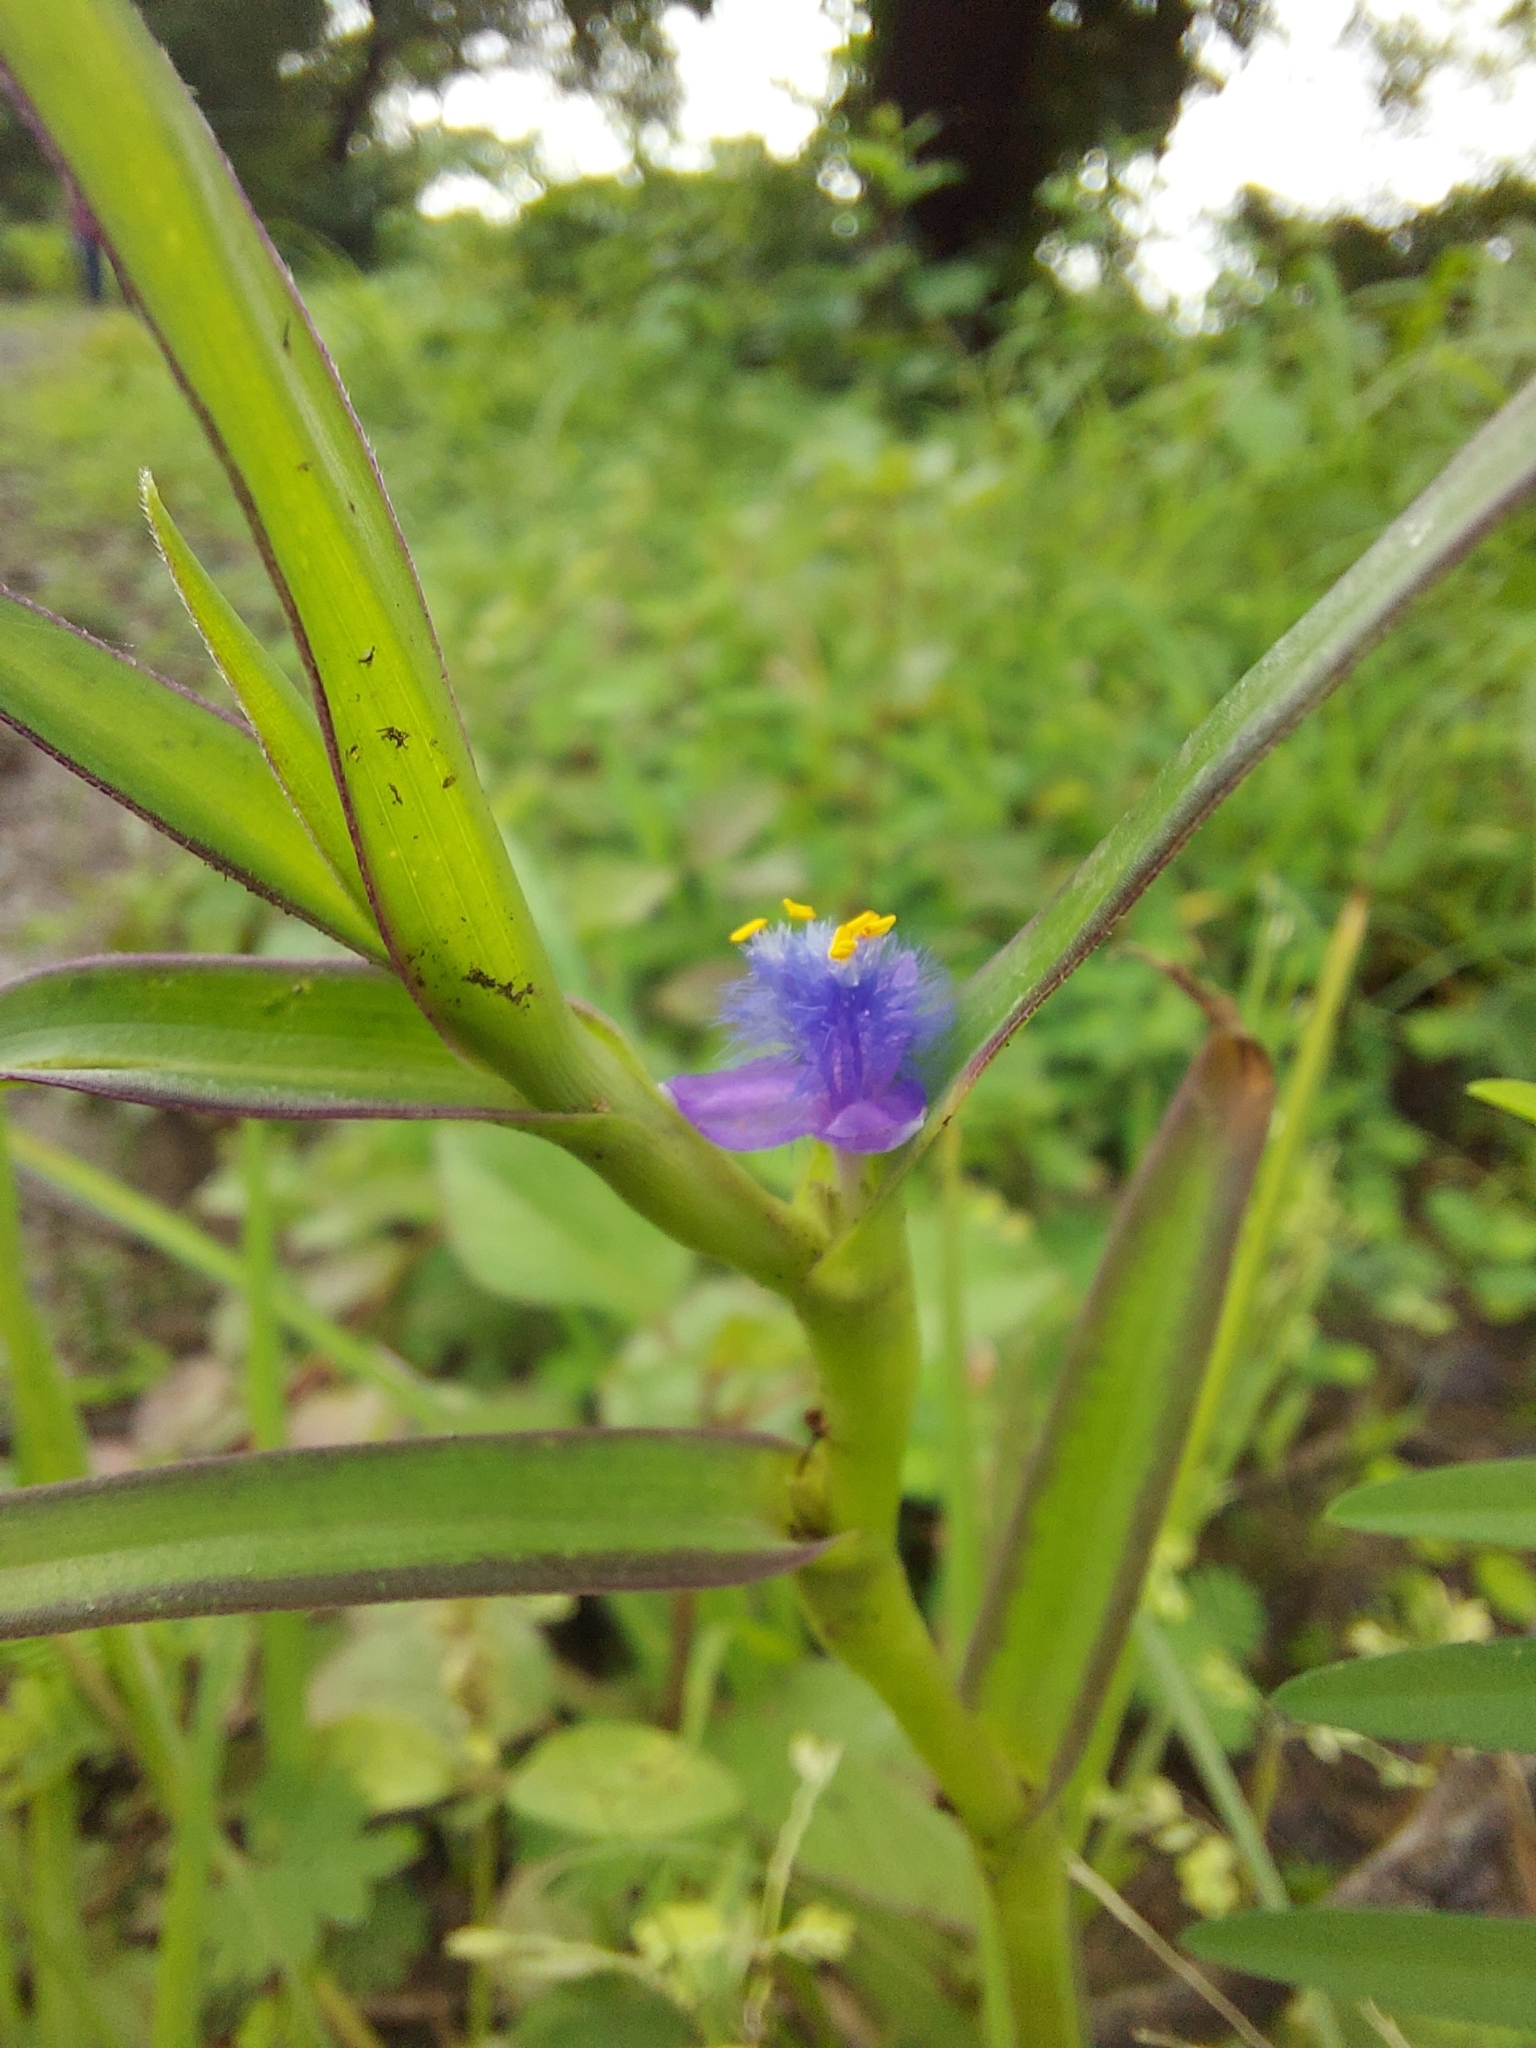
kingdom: Plantae
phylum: Tracheophyta
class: Liliopsida
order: Commelinales
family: Commelinaceae
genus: Cyanotis
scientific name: Cyanotis axillaris
